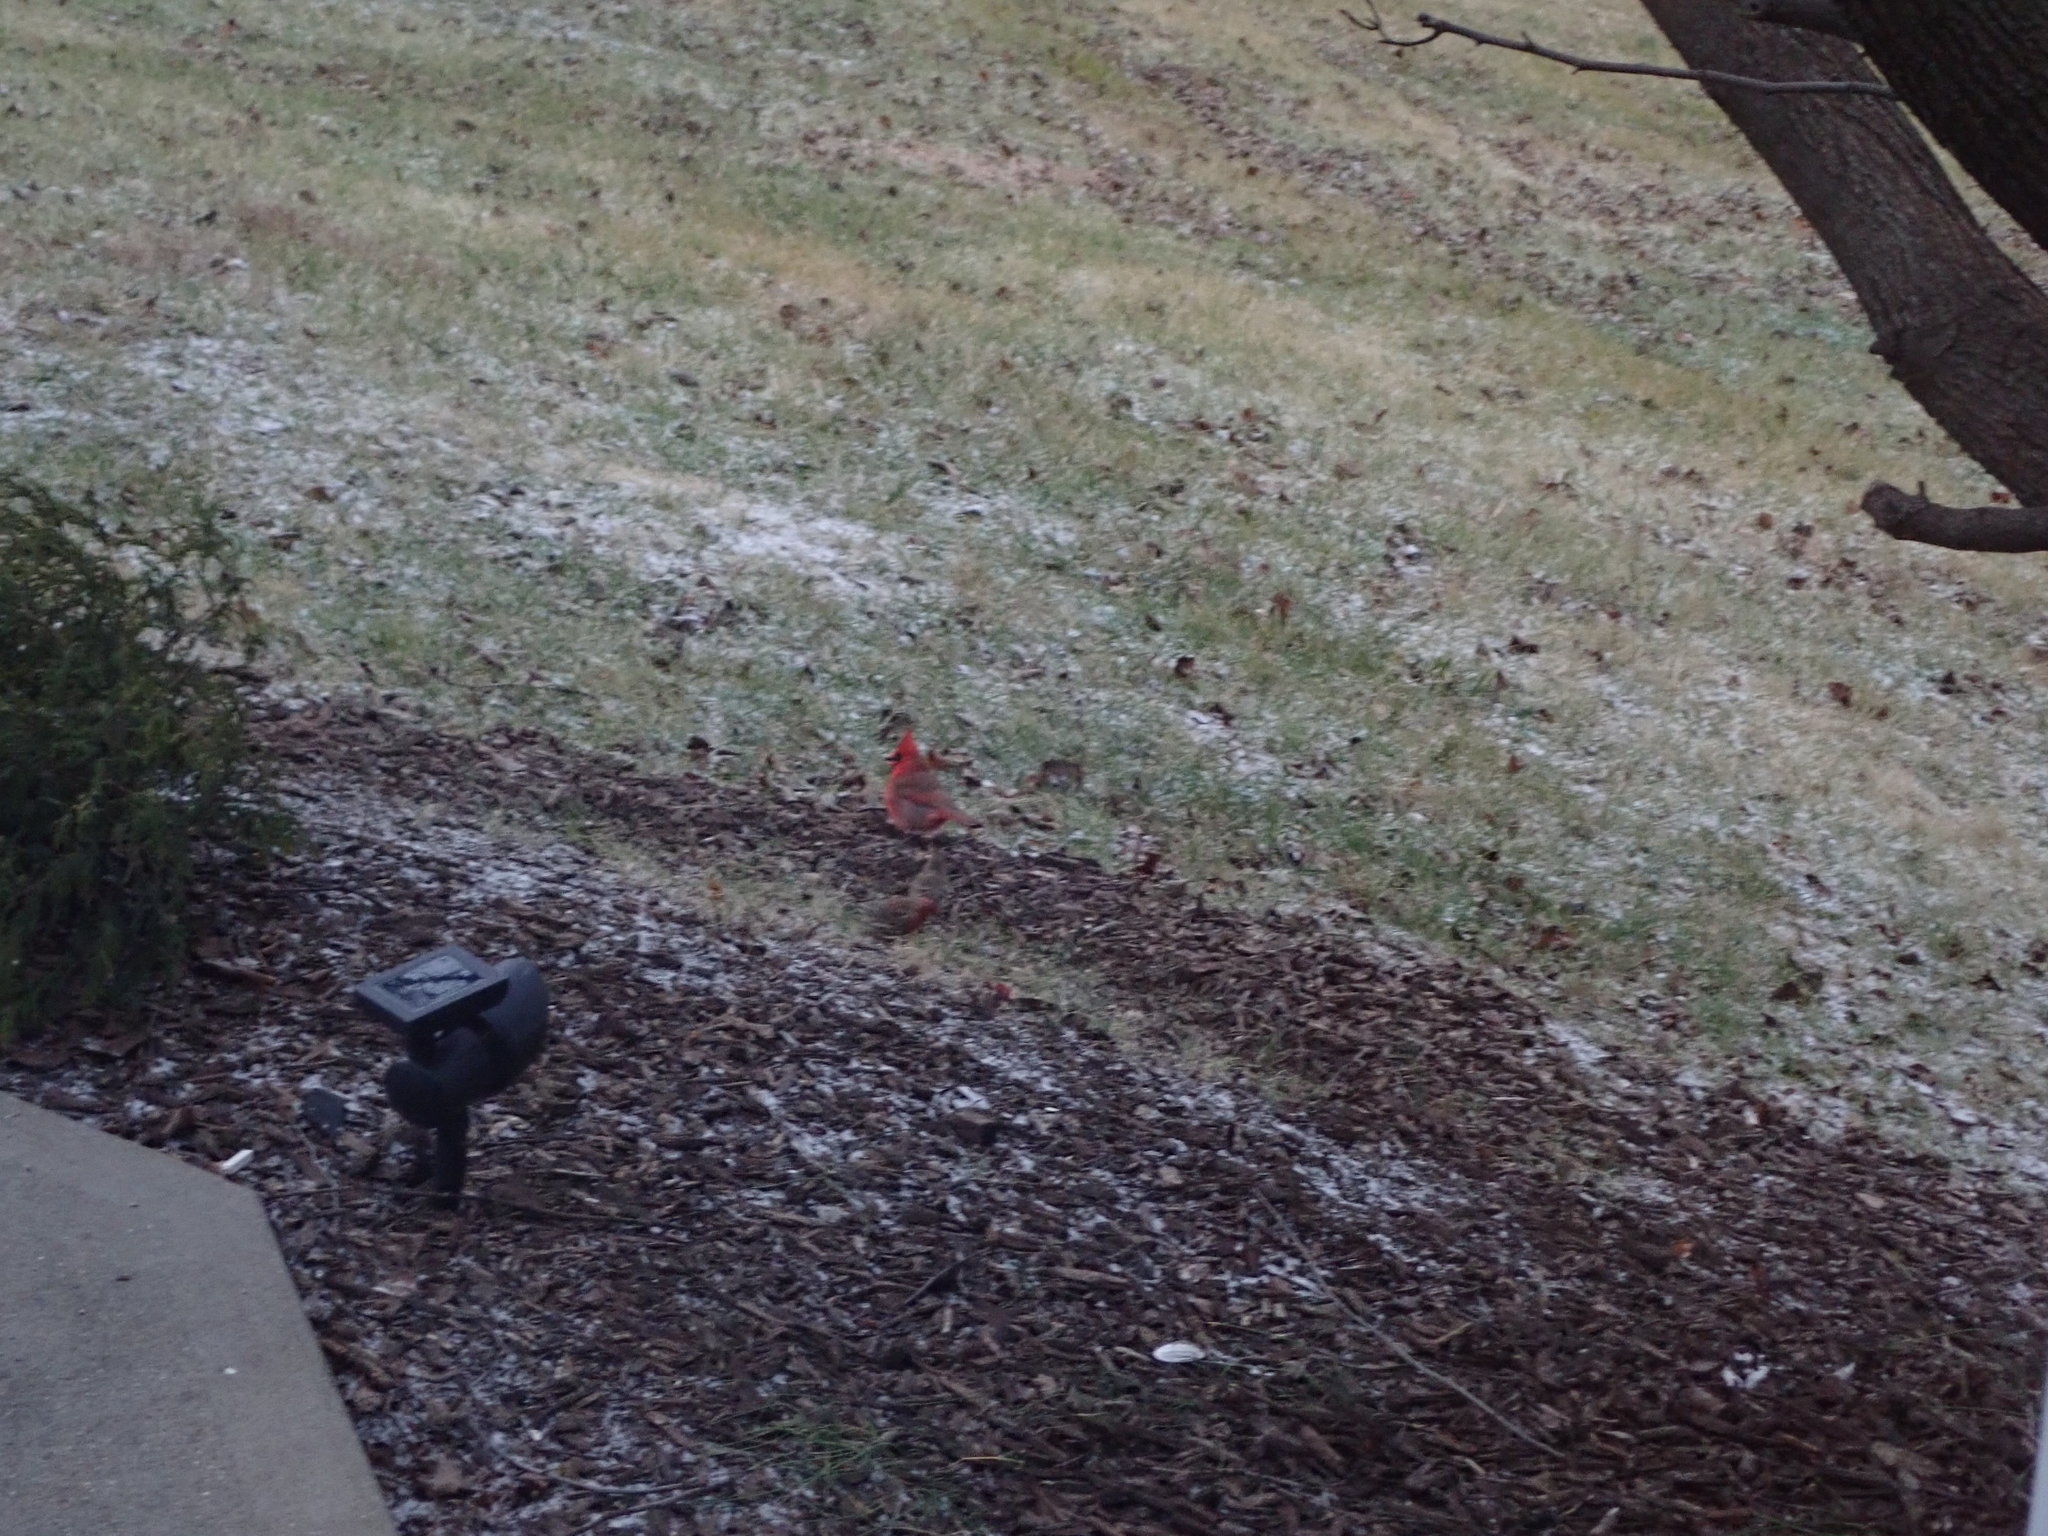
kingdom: Animalia
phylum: Chordata
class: Aves
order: Passeriformes
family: Cardinalidae
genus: Cardinalis
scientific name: Cardinalis cardinalis
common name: Northern cardinal
